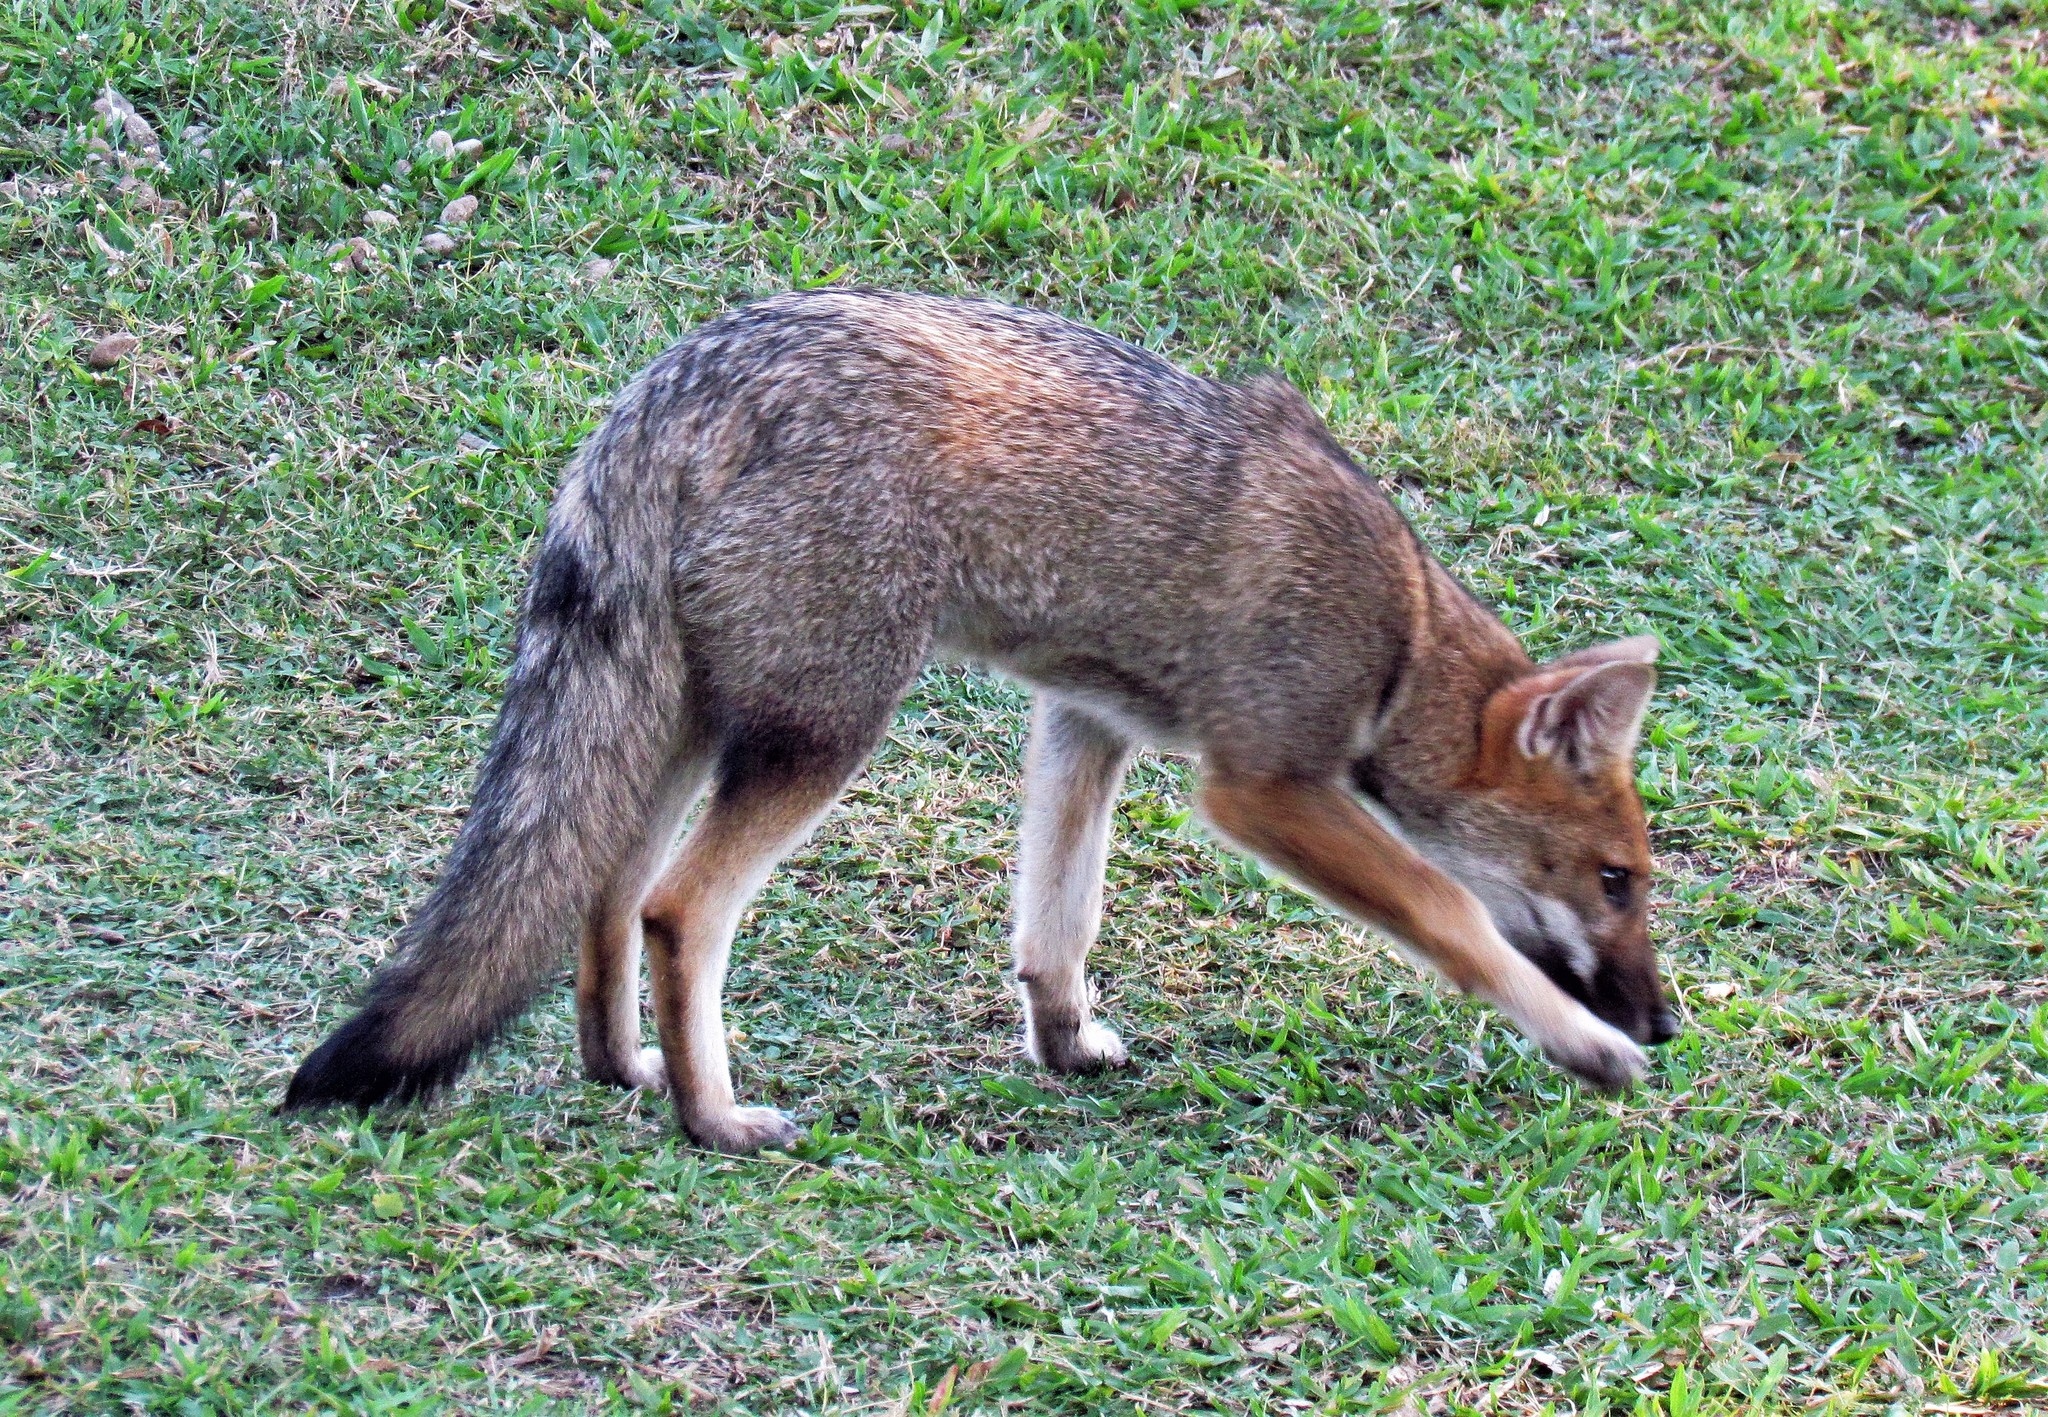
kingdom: Animalia
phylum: Chordata
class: Mammalia
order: Carnivora
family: Canidae
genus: Lycalopex
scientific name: Lycalopex gymnocercus
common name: Pampas fox
